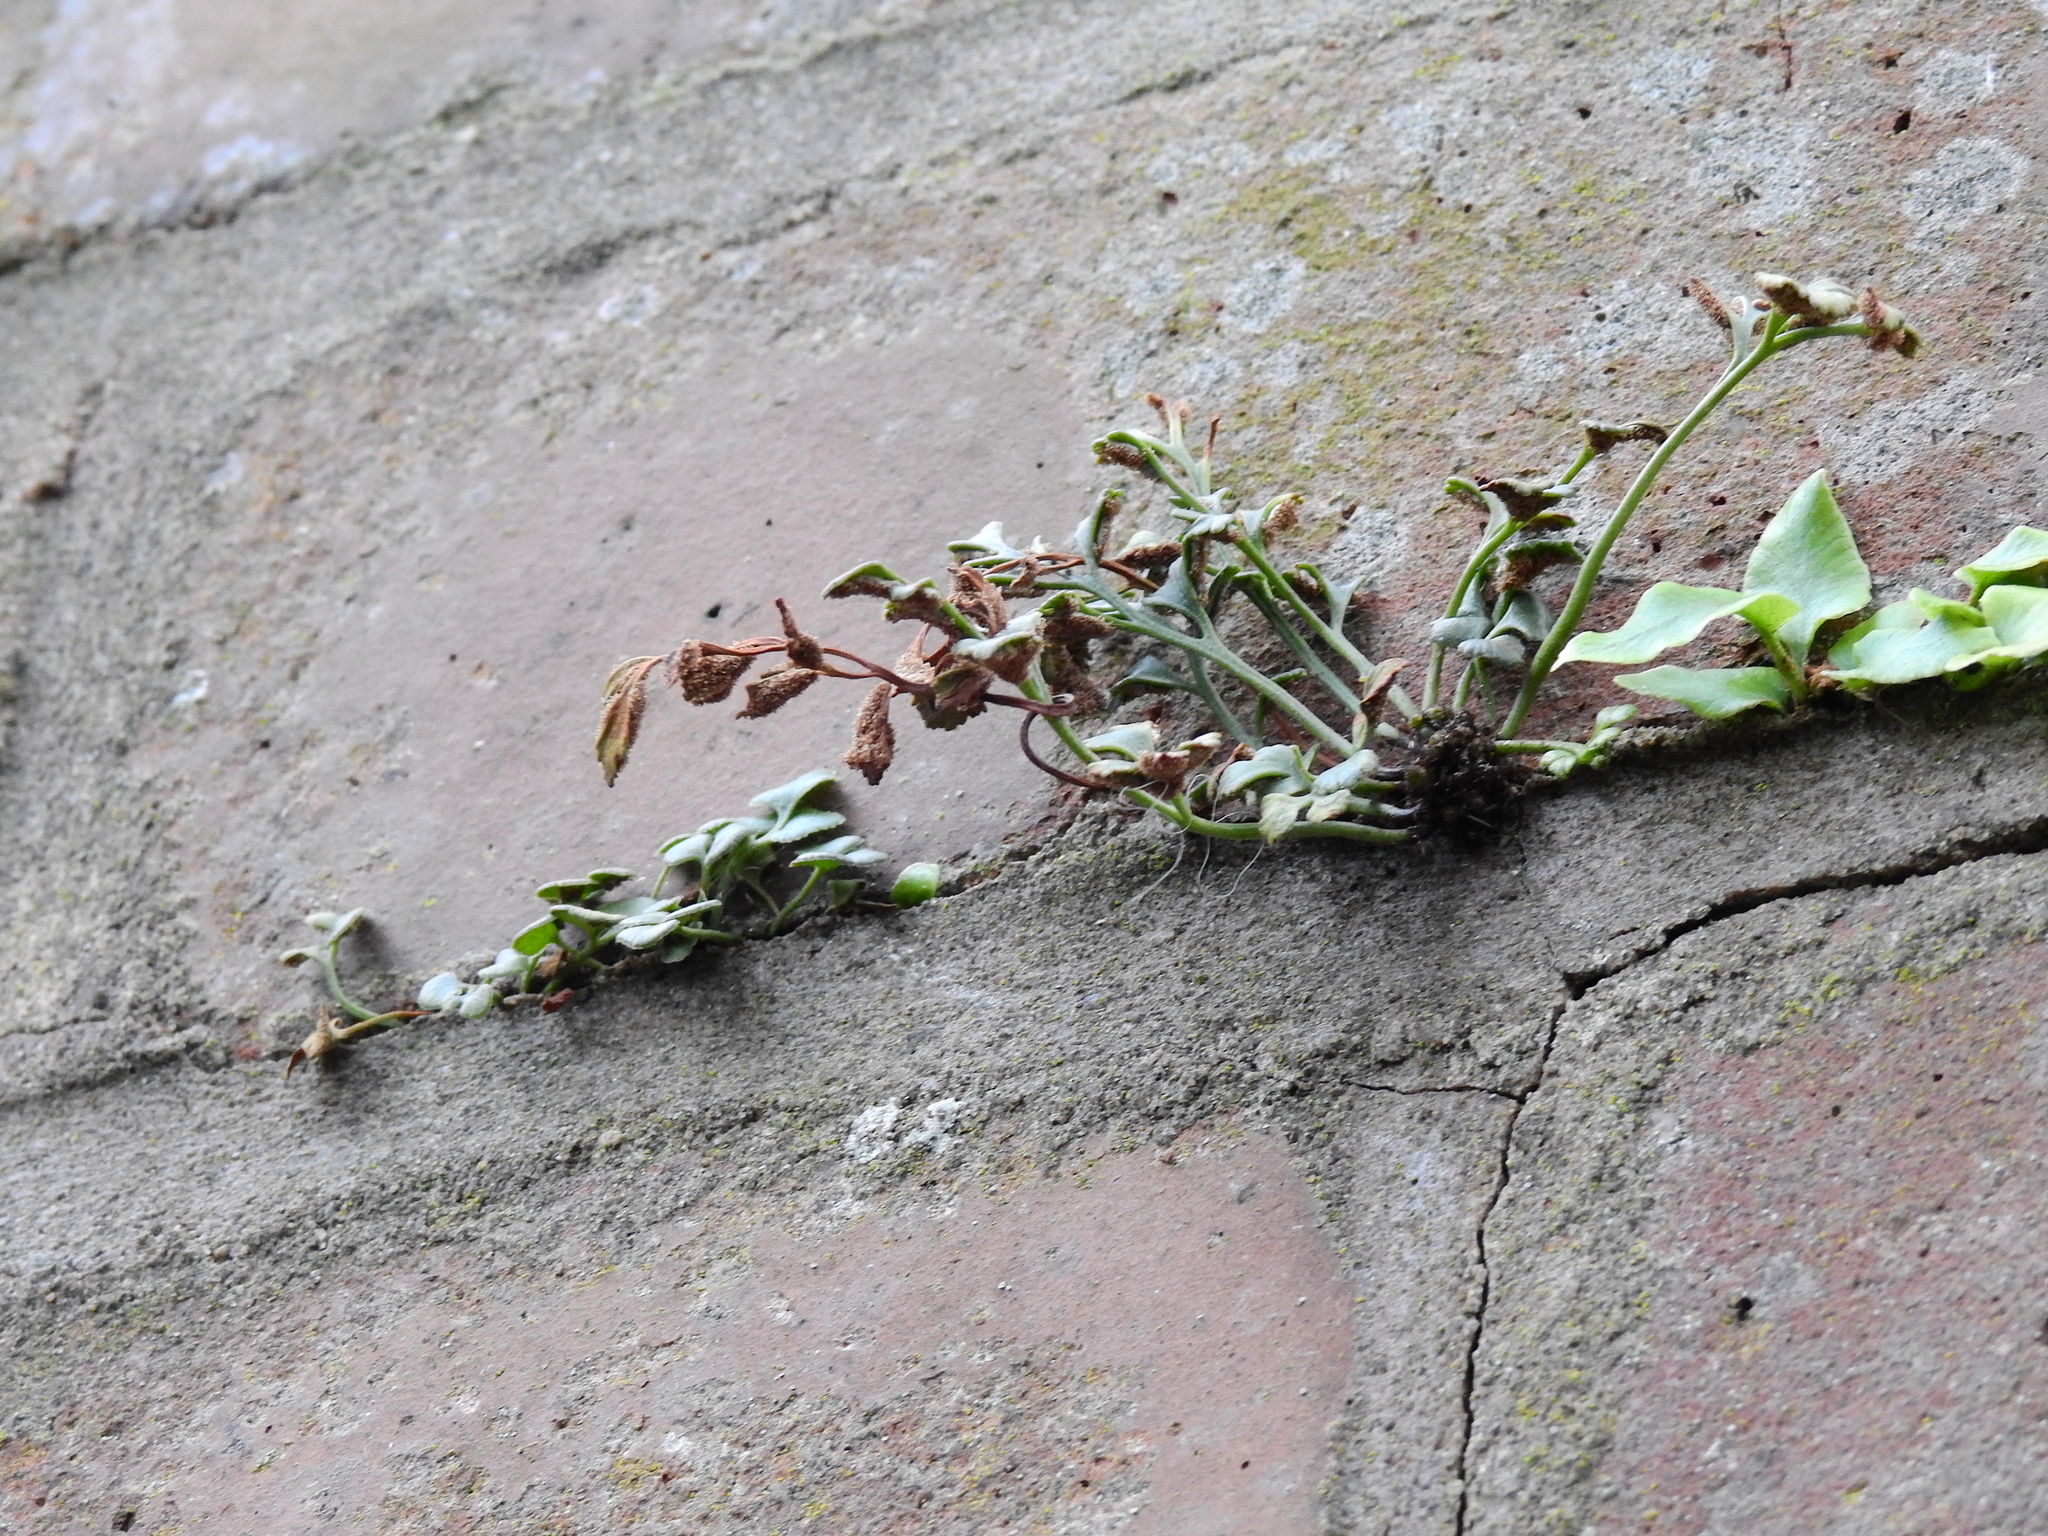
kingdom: Plantae
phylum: Tracheophyta
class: Polypodiopsida
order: Polypodiales
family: Aspleniaceae
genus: Asplenium
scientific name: Asplenium ruta-muraria
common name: Wall-rue
